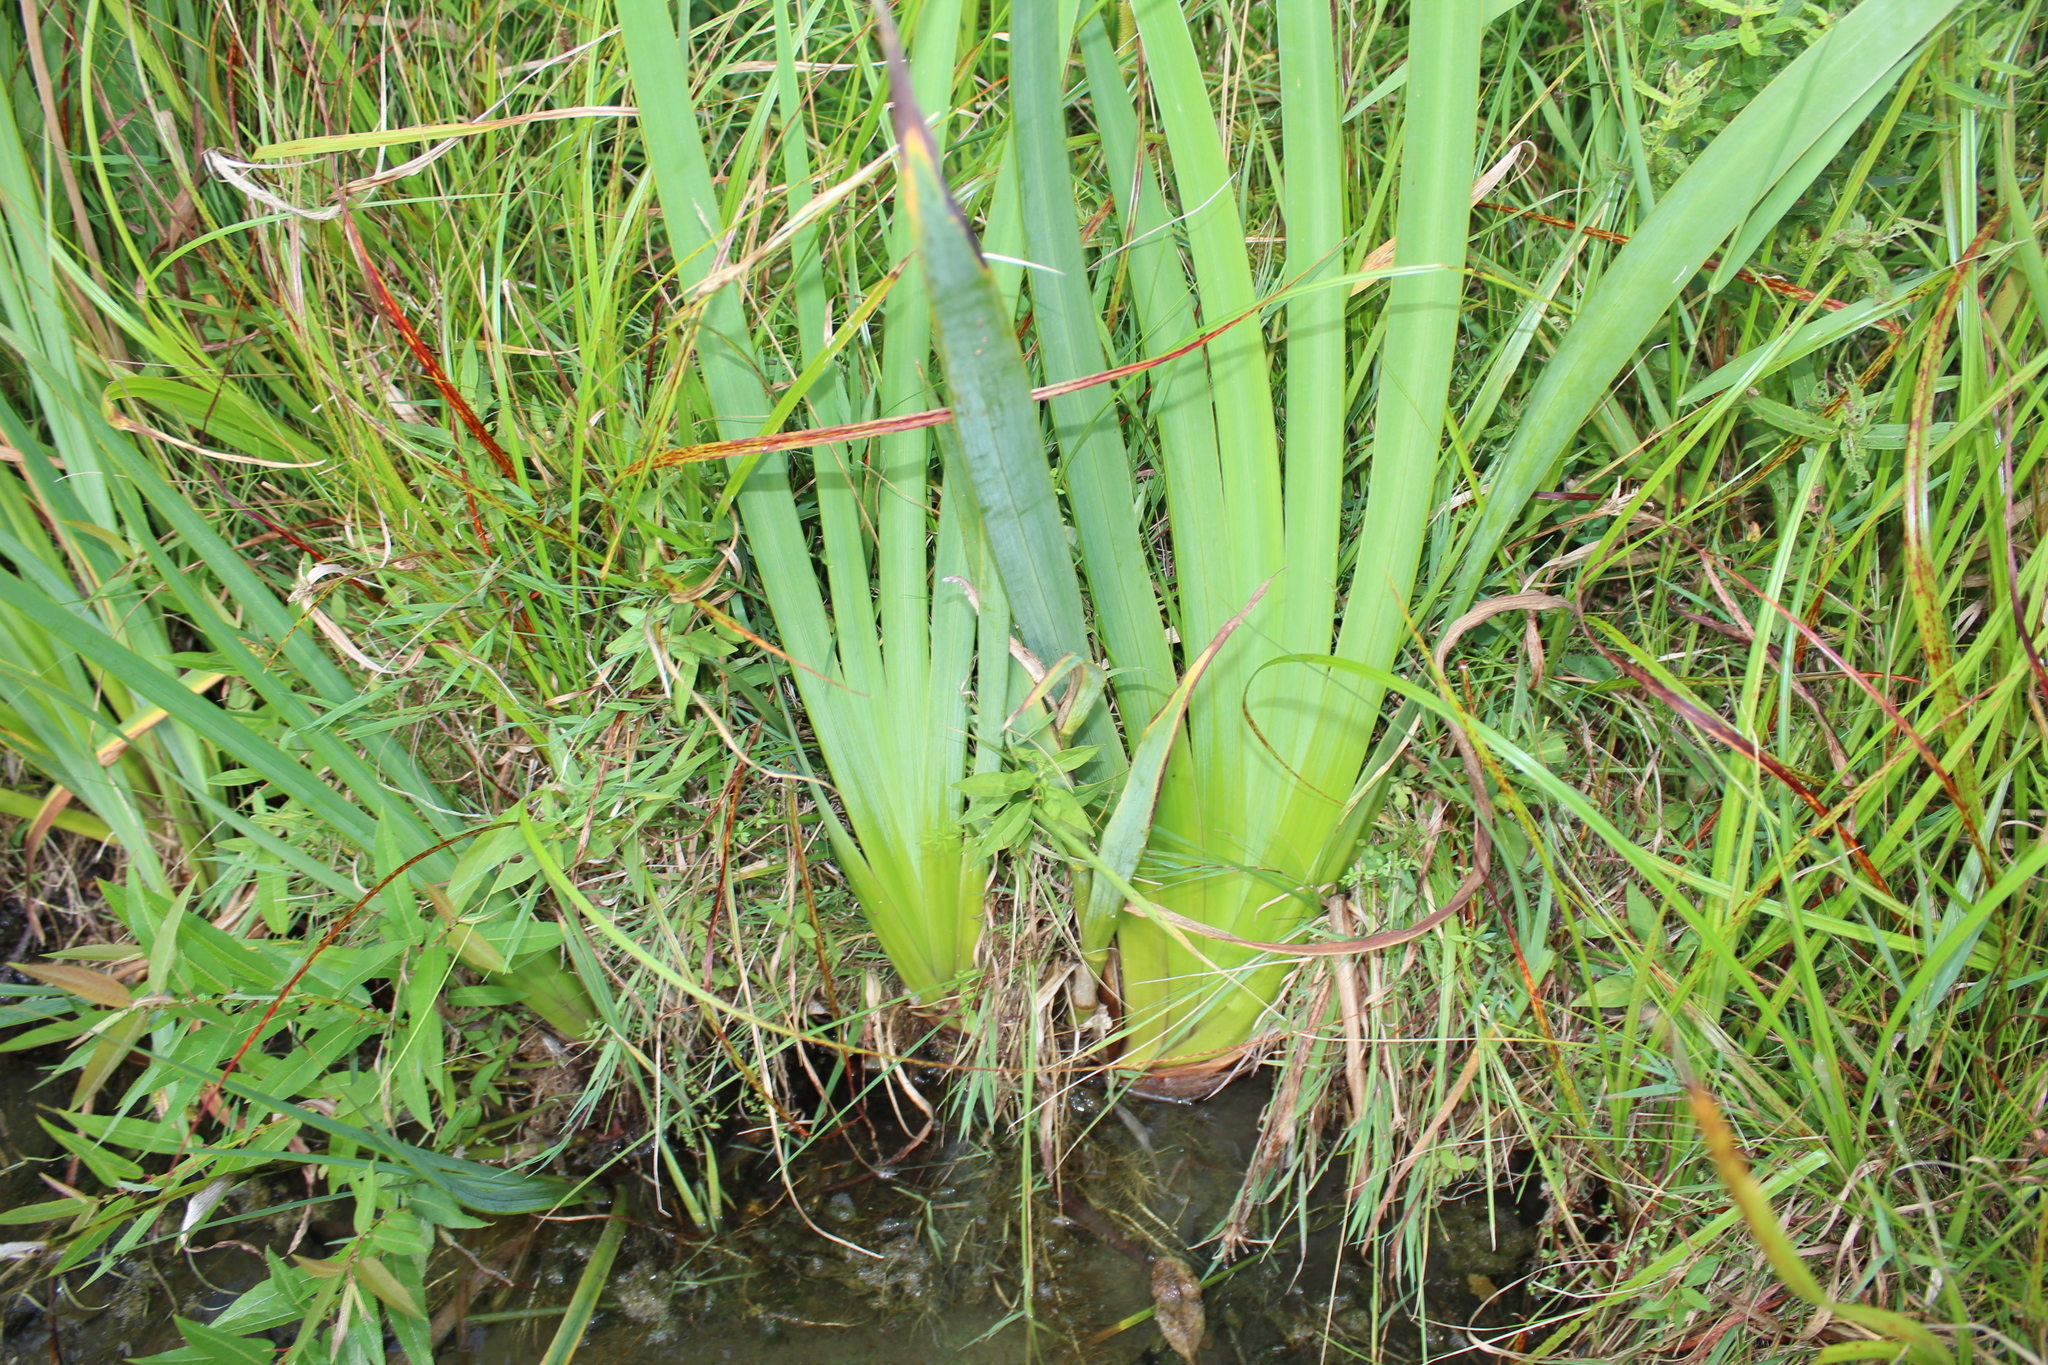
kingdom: Plantae
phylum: Tracheophyta
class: Liliopsida
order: Asparagales
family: Iridaceae
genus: Iris
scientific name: Iris pseudacorus
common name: Yellow flag
